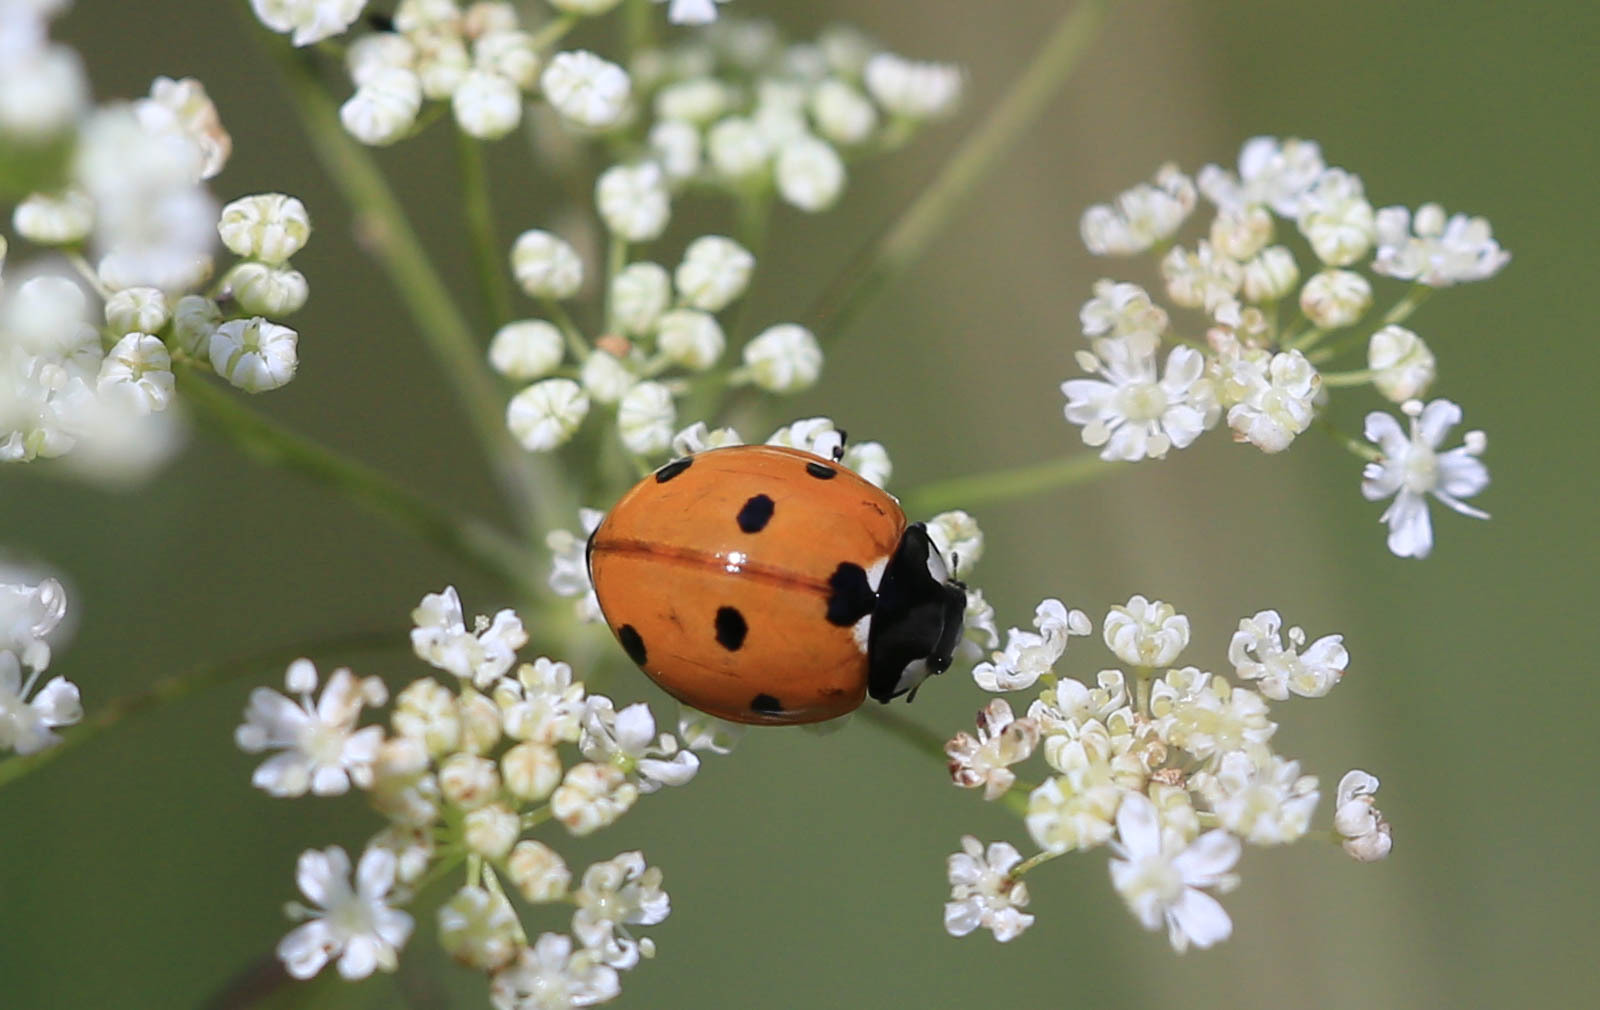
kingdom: Animalia
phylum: Arthropoda
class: Insecta
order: Coleoptera
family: Coccinellidae
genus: Coccinella
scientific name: Coccinella septempunctata
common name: Sevenspotted lady beetle
